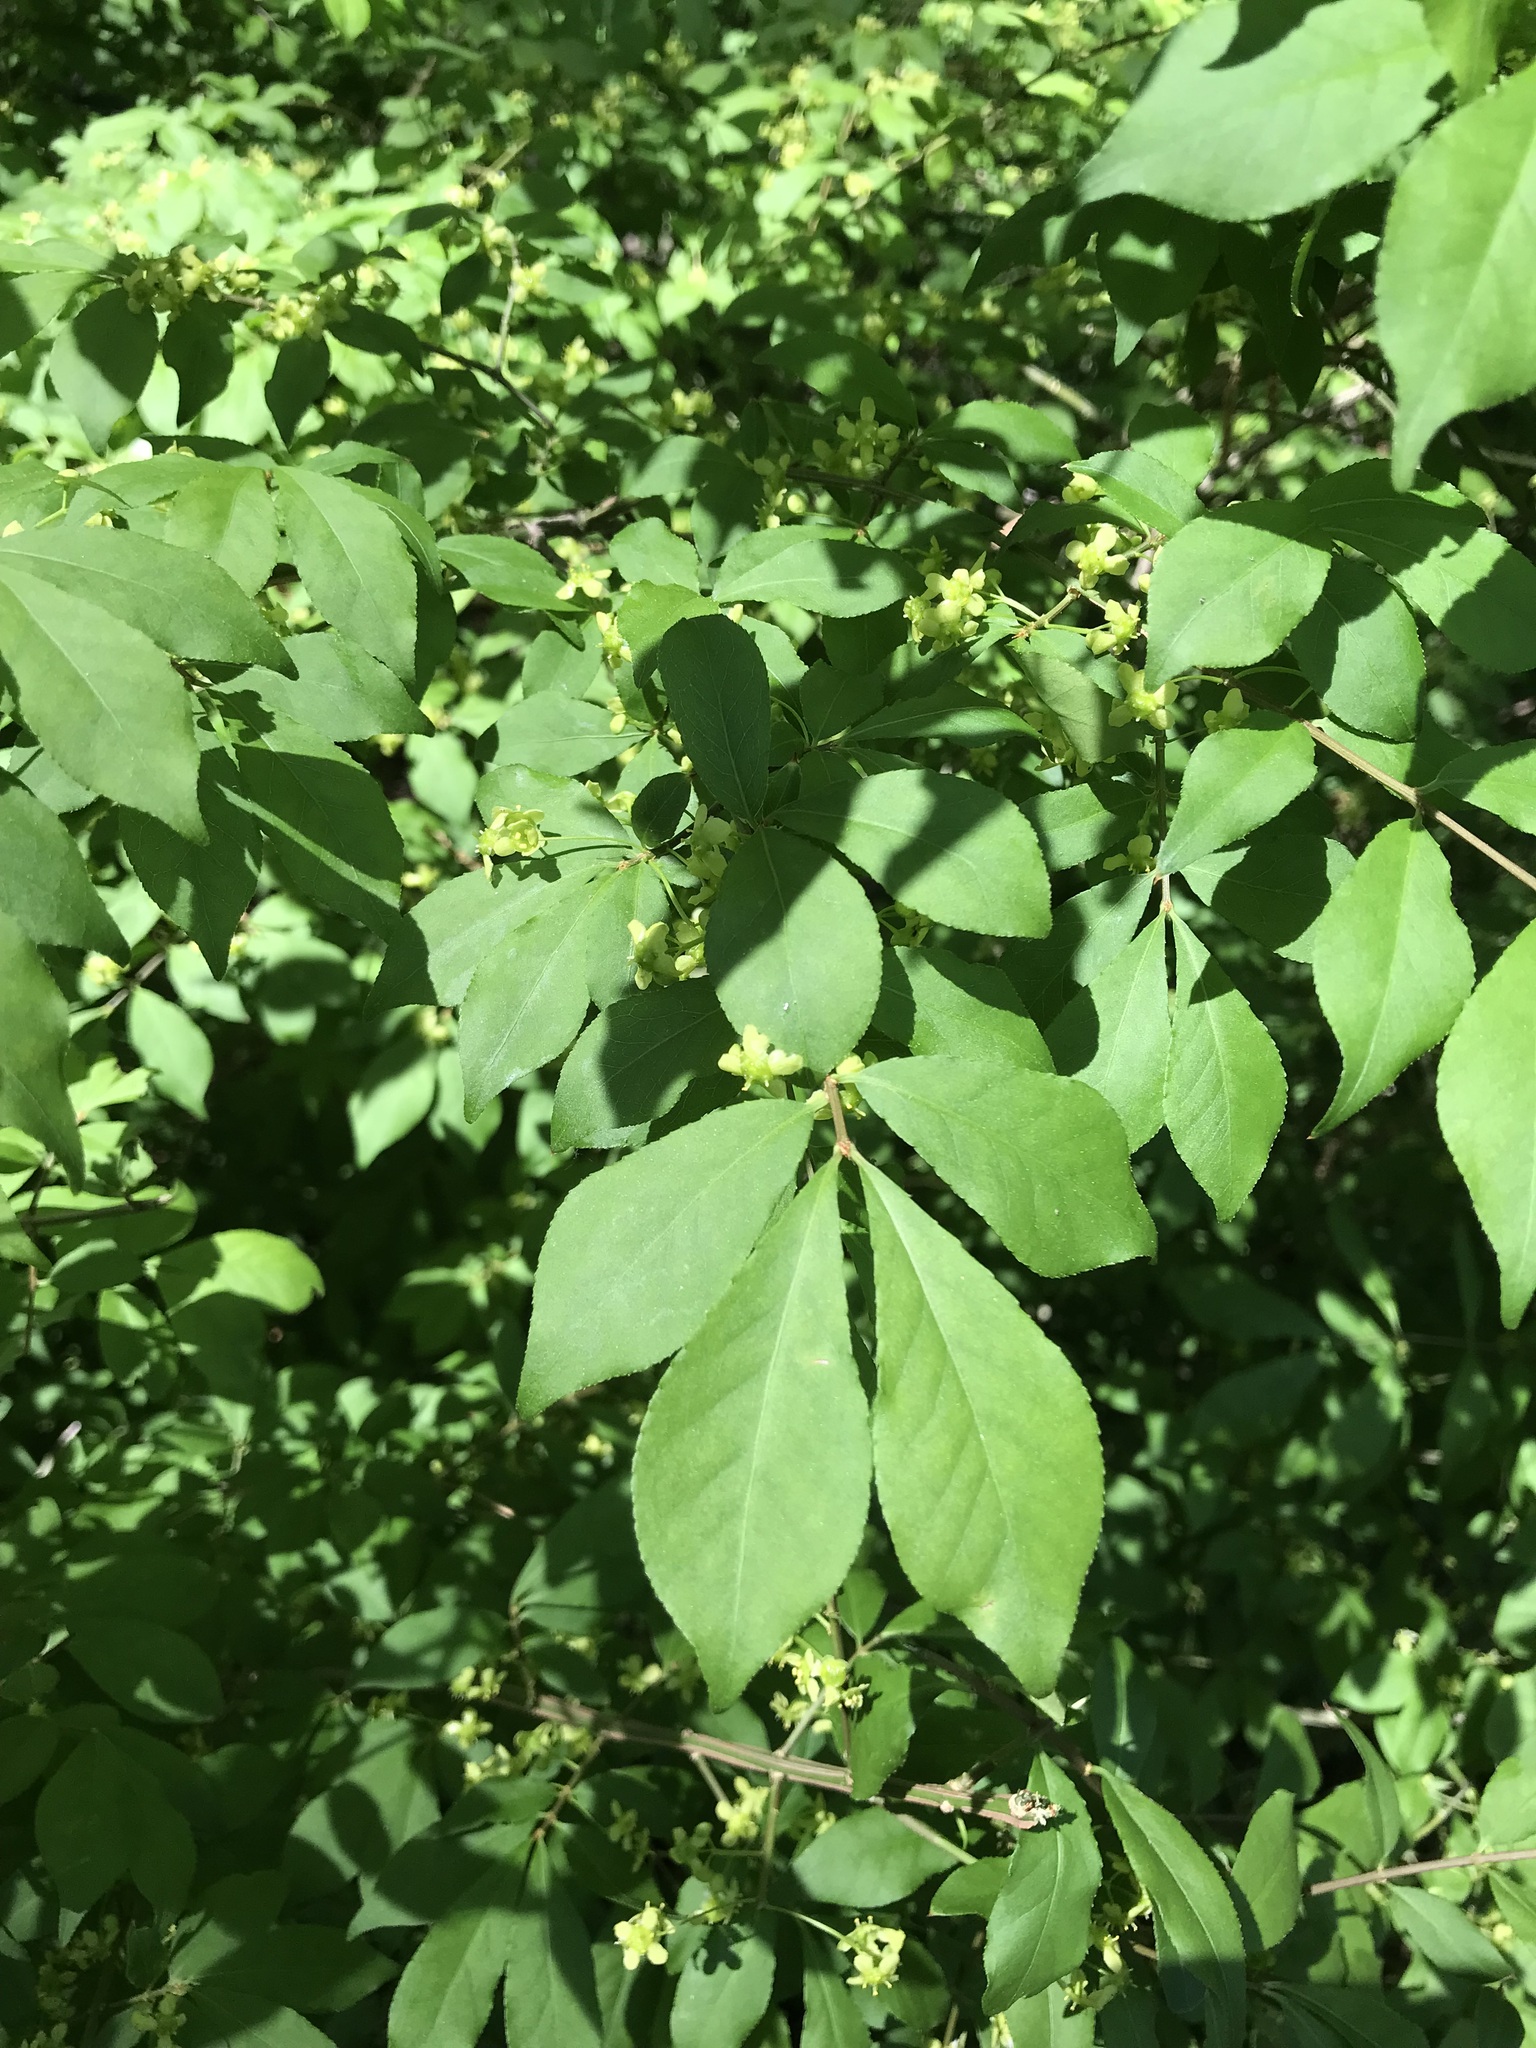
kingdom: Plantae
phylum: Tracheophyta
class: Magnoliopsida
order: Celastrales
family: Celastraceae
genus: Euonymus
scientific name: Euonymus alatus
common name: Winged euonymus
